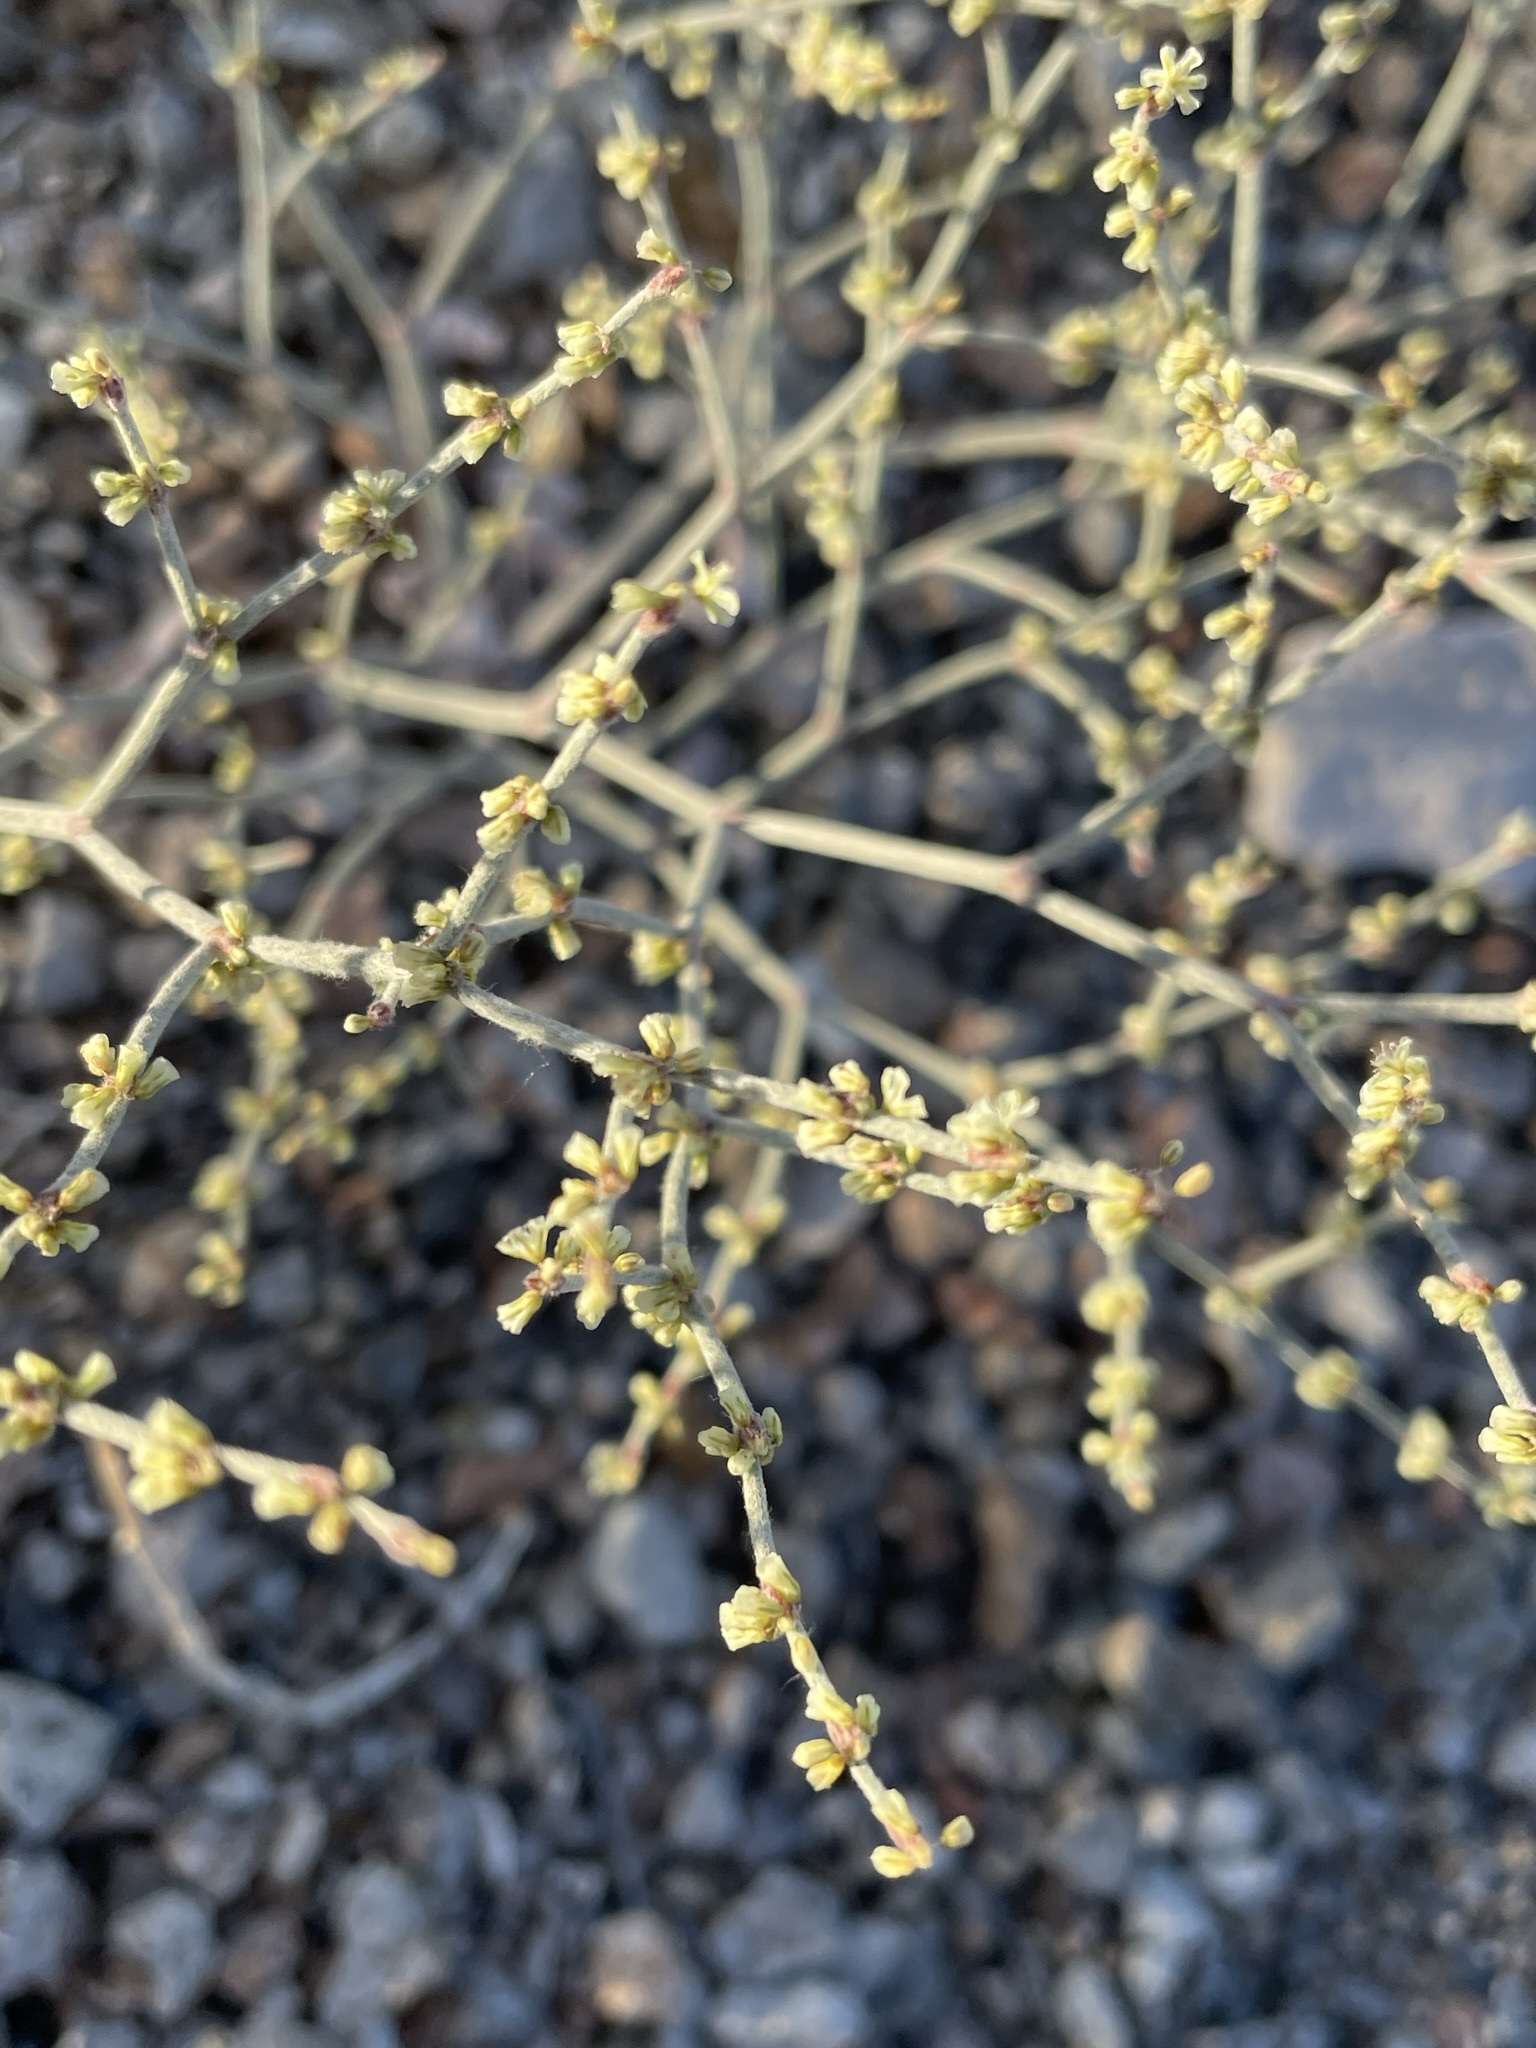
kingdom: Plantae
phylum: Tracheophyta
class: Magnoliopsida
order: Caryophyllales
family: Polygonaceae
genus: Eriogonum
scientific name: Eriogonum palmerianum
